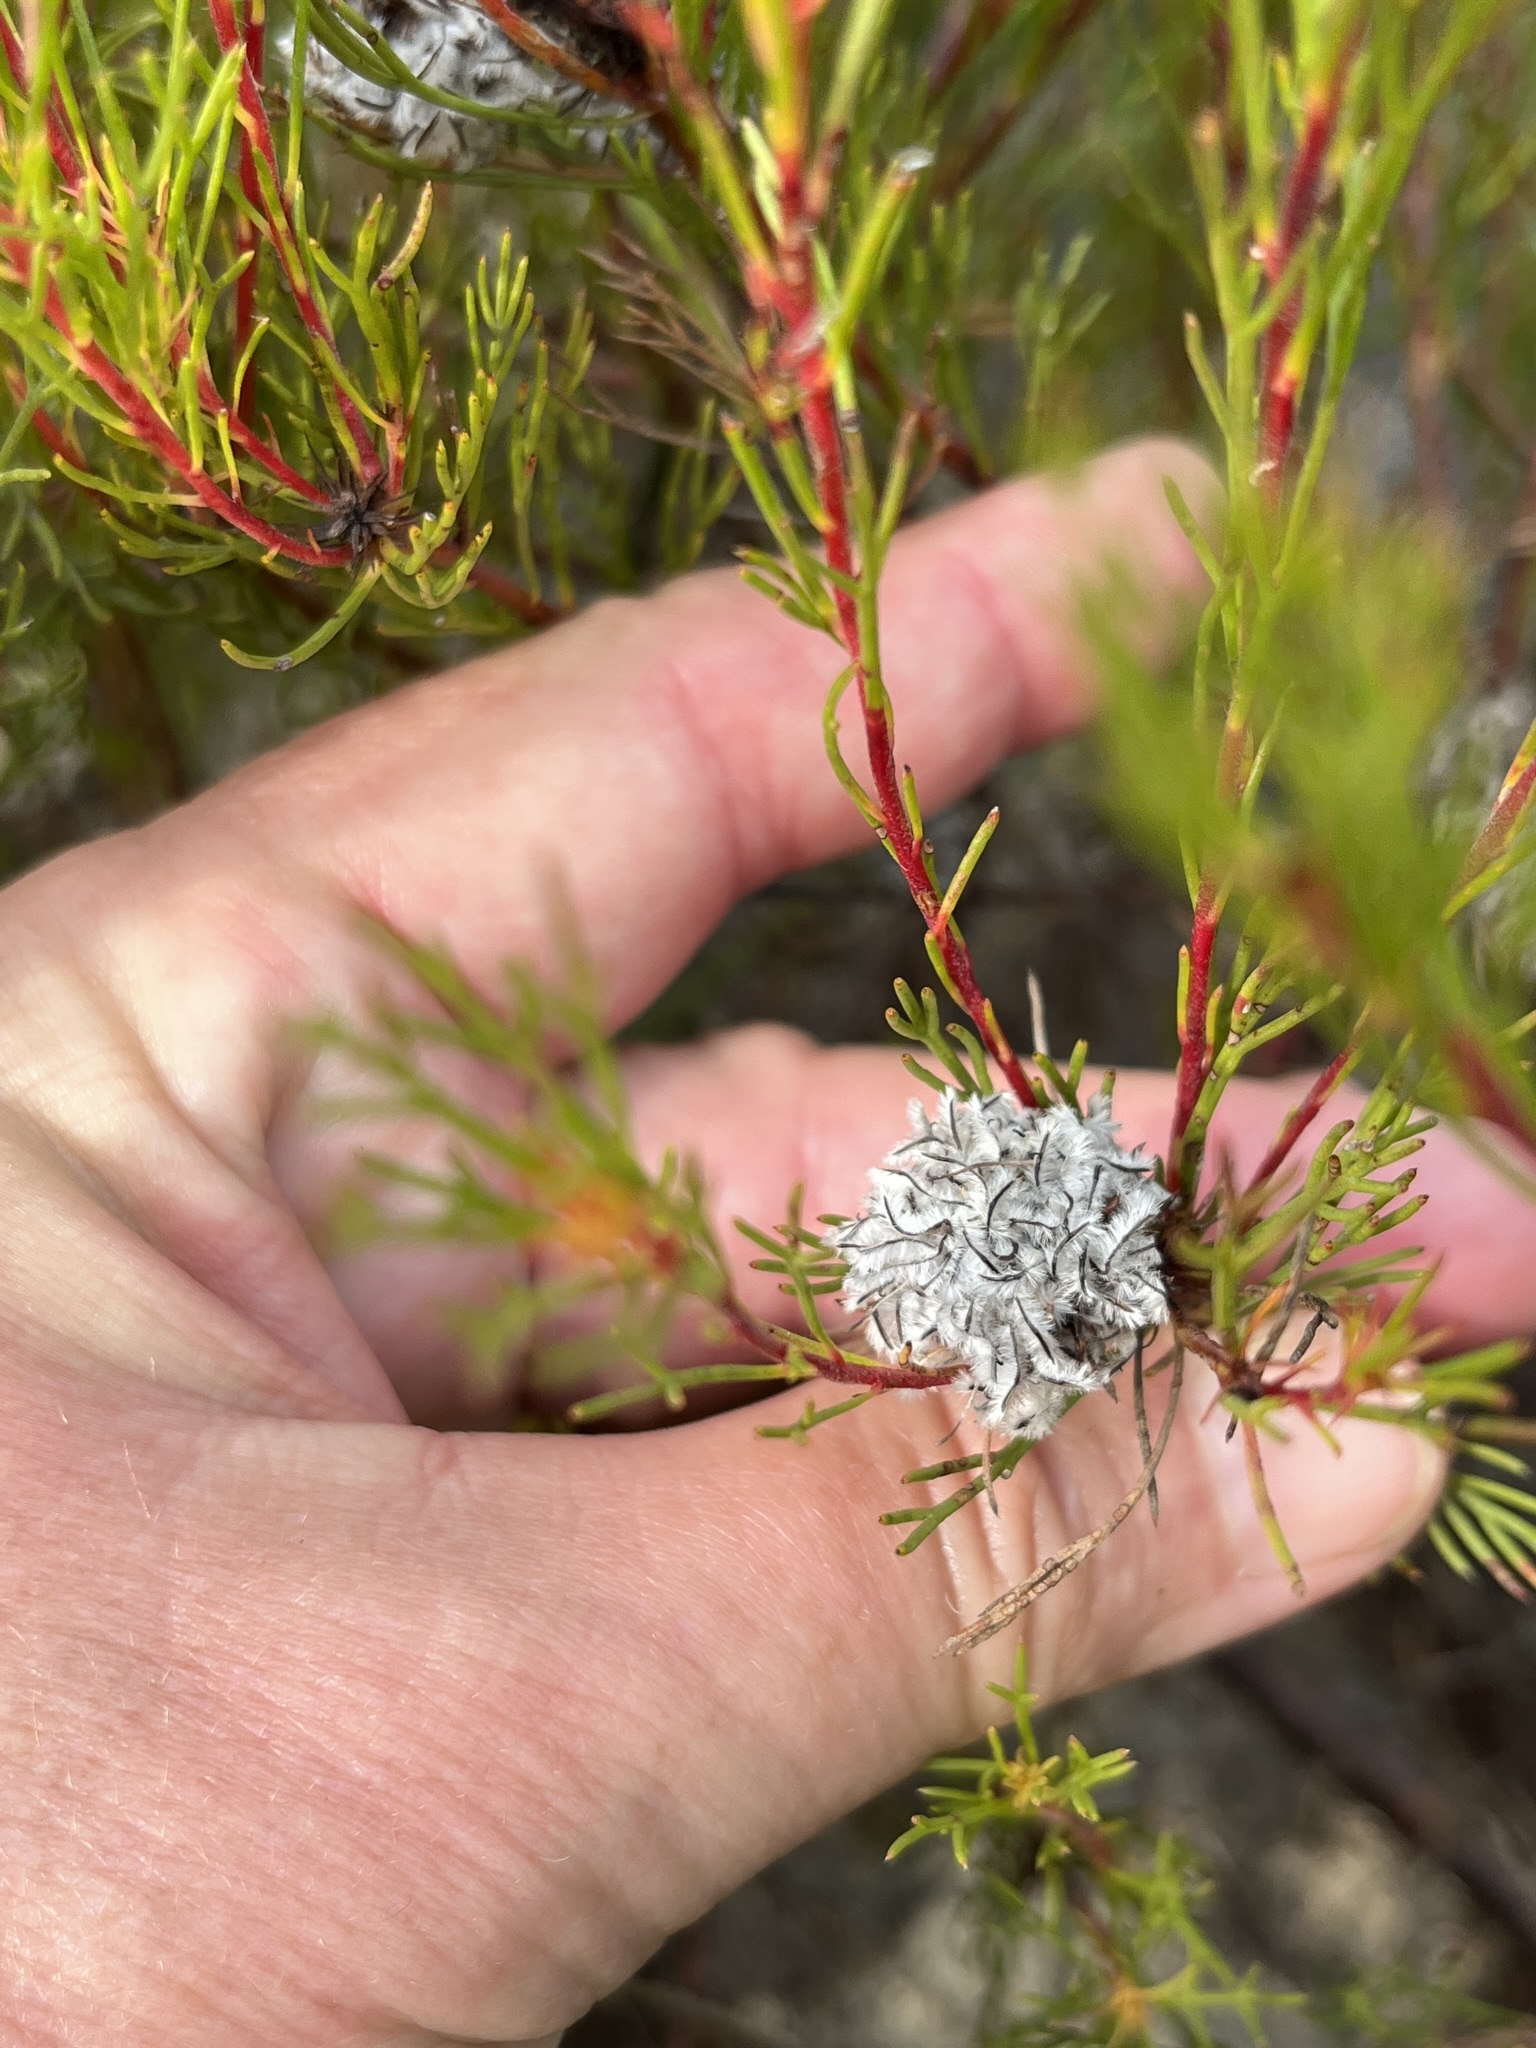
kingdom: Plantae
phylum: Tracheophyta
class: Magnoliopsida
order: Proteales
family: Proteaceae
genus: Serruria
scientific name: Serruria nervosa
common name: Fluted spiderhead
